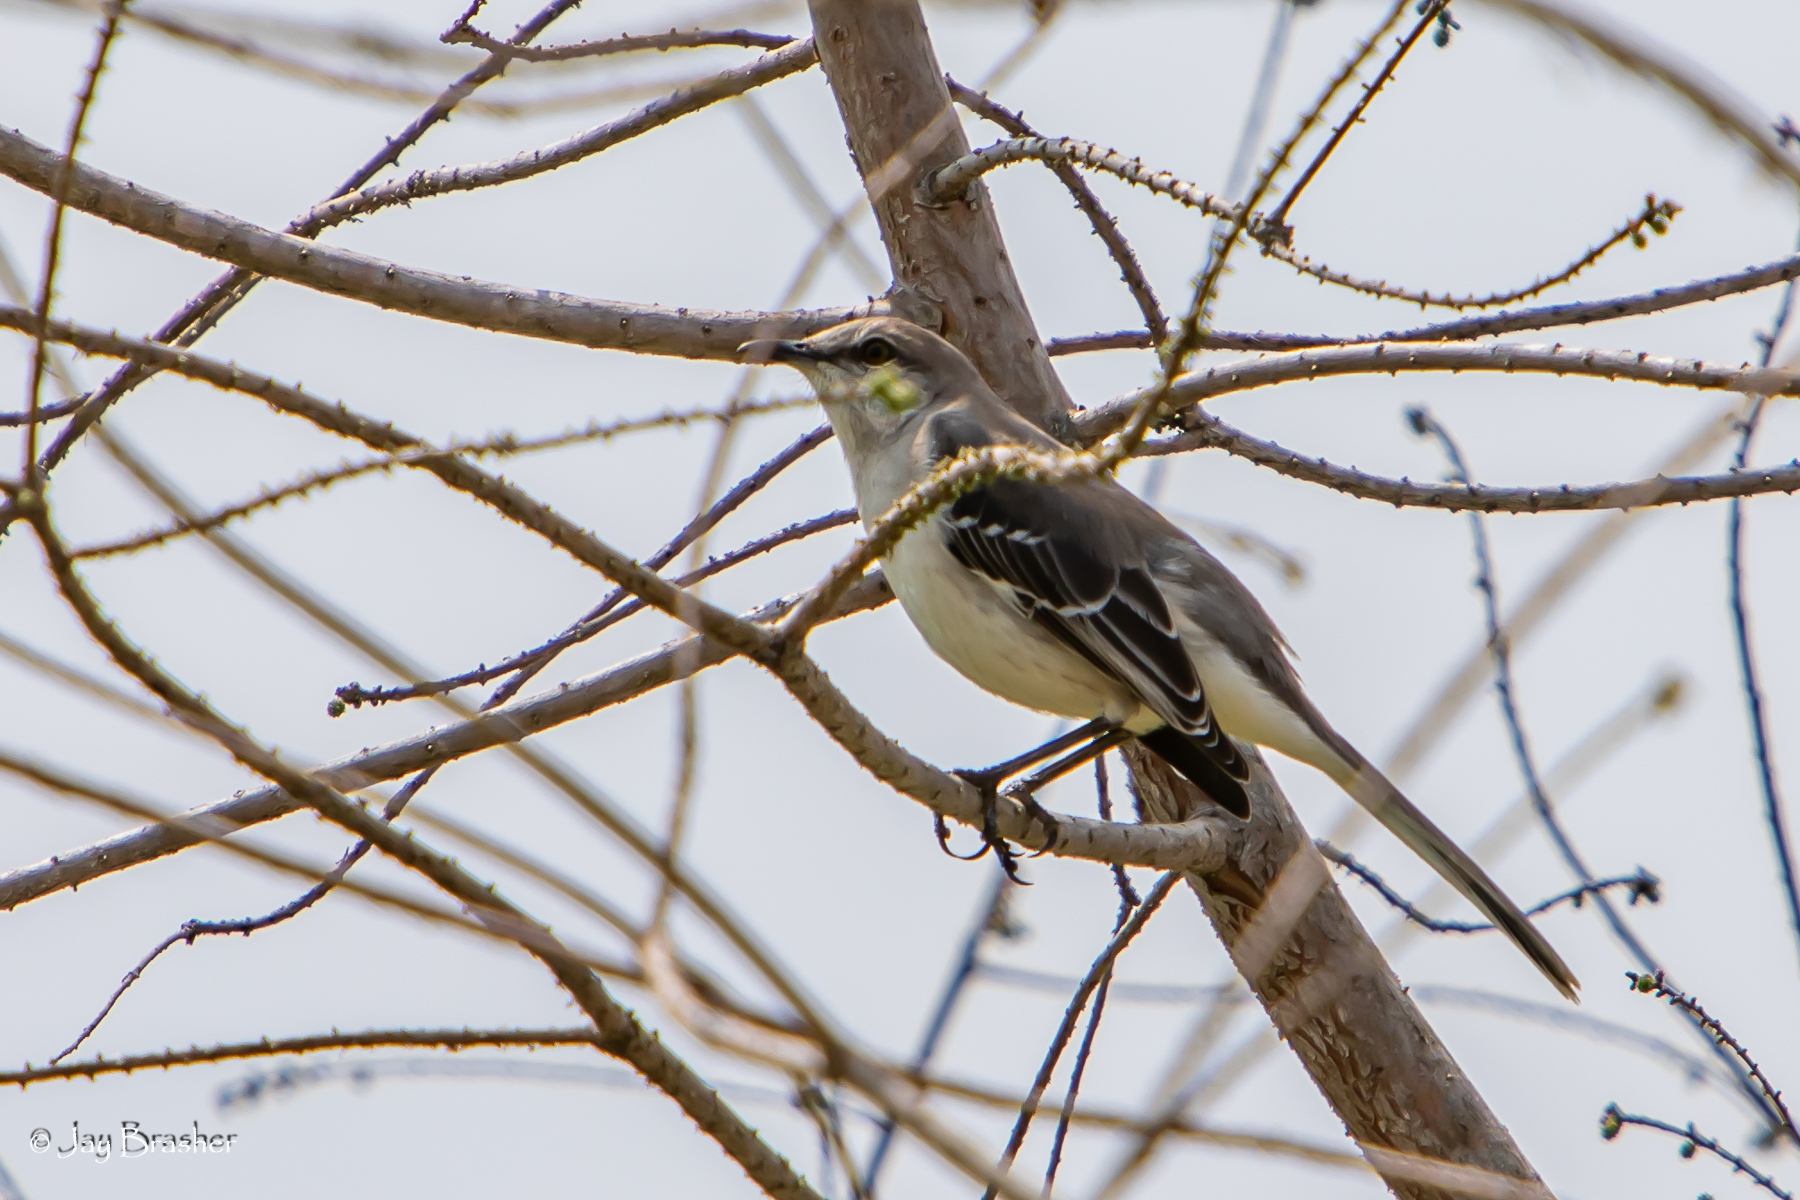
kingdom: Animalia
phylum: Chordata
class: Aves
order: Passeriformes
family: Mimidae
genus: Mimus
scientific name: Mimus polyglottos
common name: Northern mockingbird
